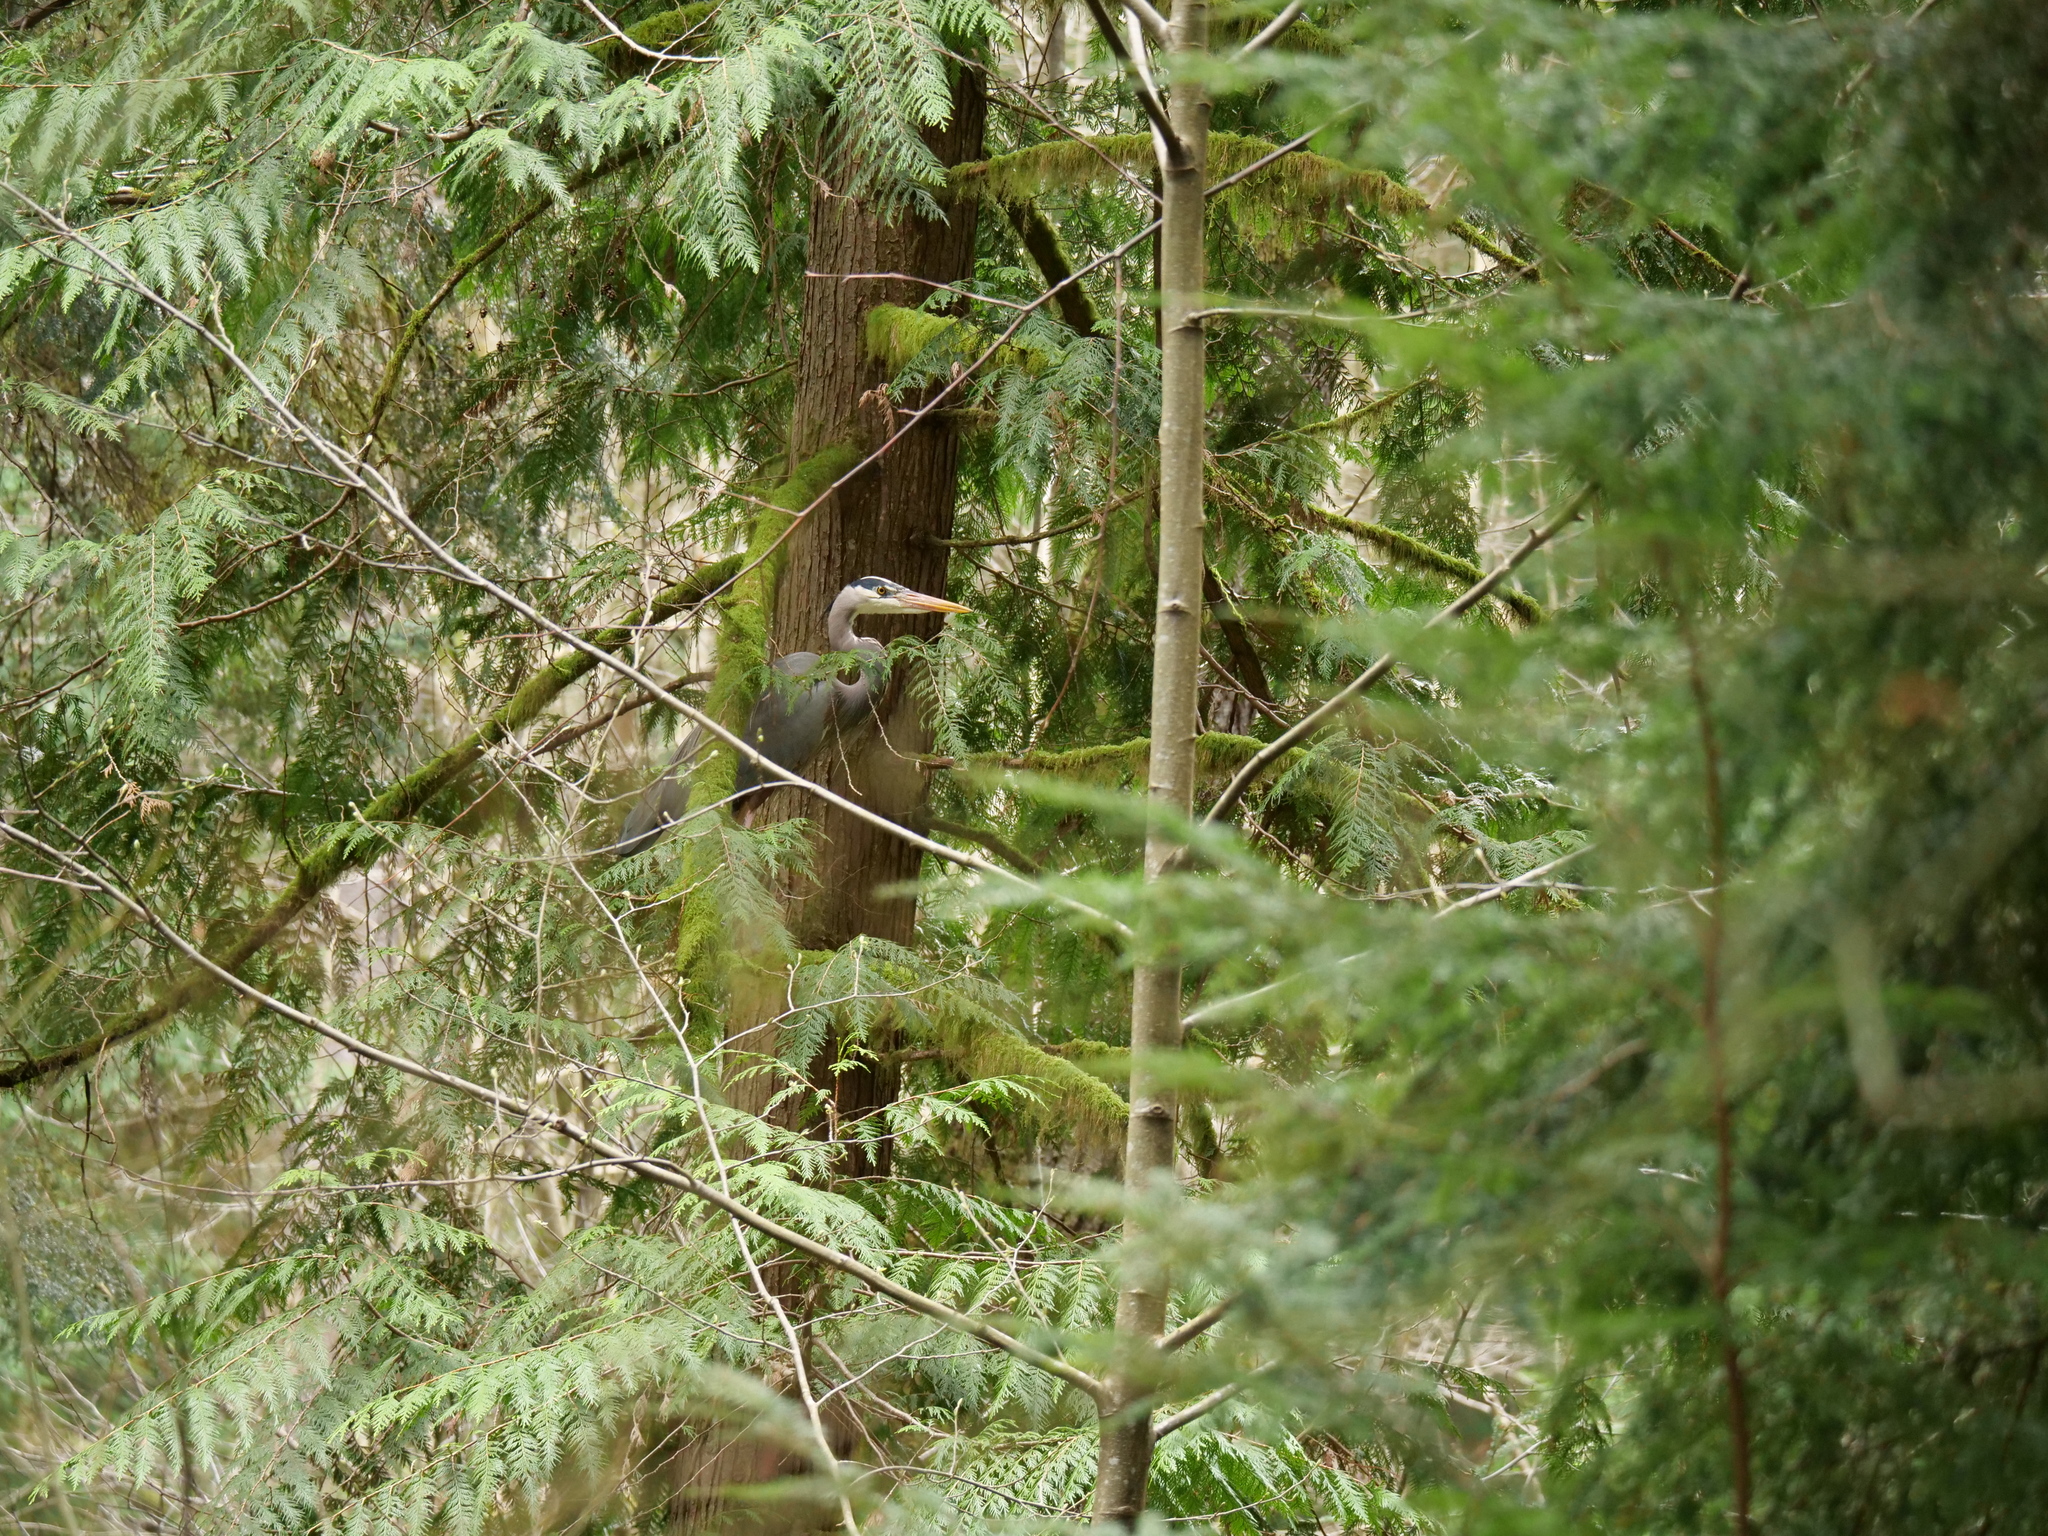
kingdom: Animalia
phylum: Chordata
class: Aves
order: Pelecaniformes
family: Ardeidae
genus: Ardea
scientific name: Ardea herodias
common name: Great blue heron
